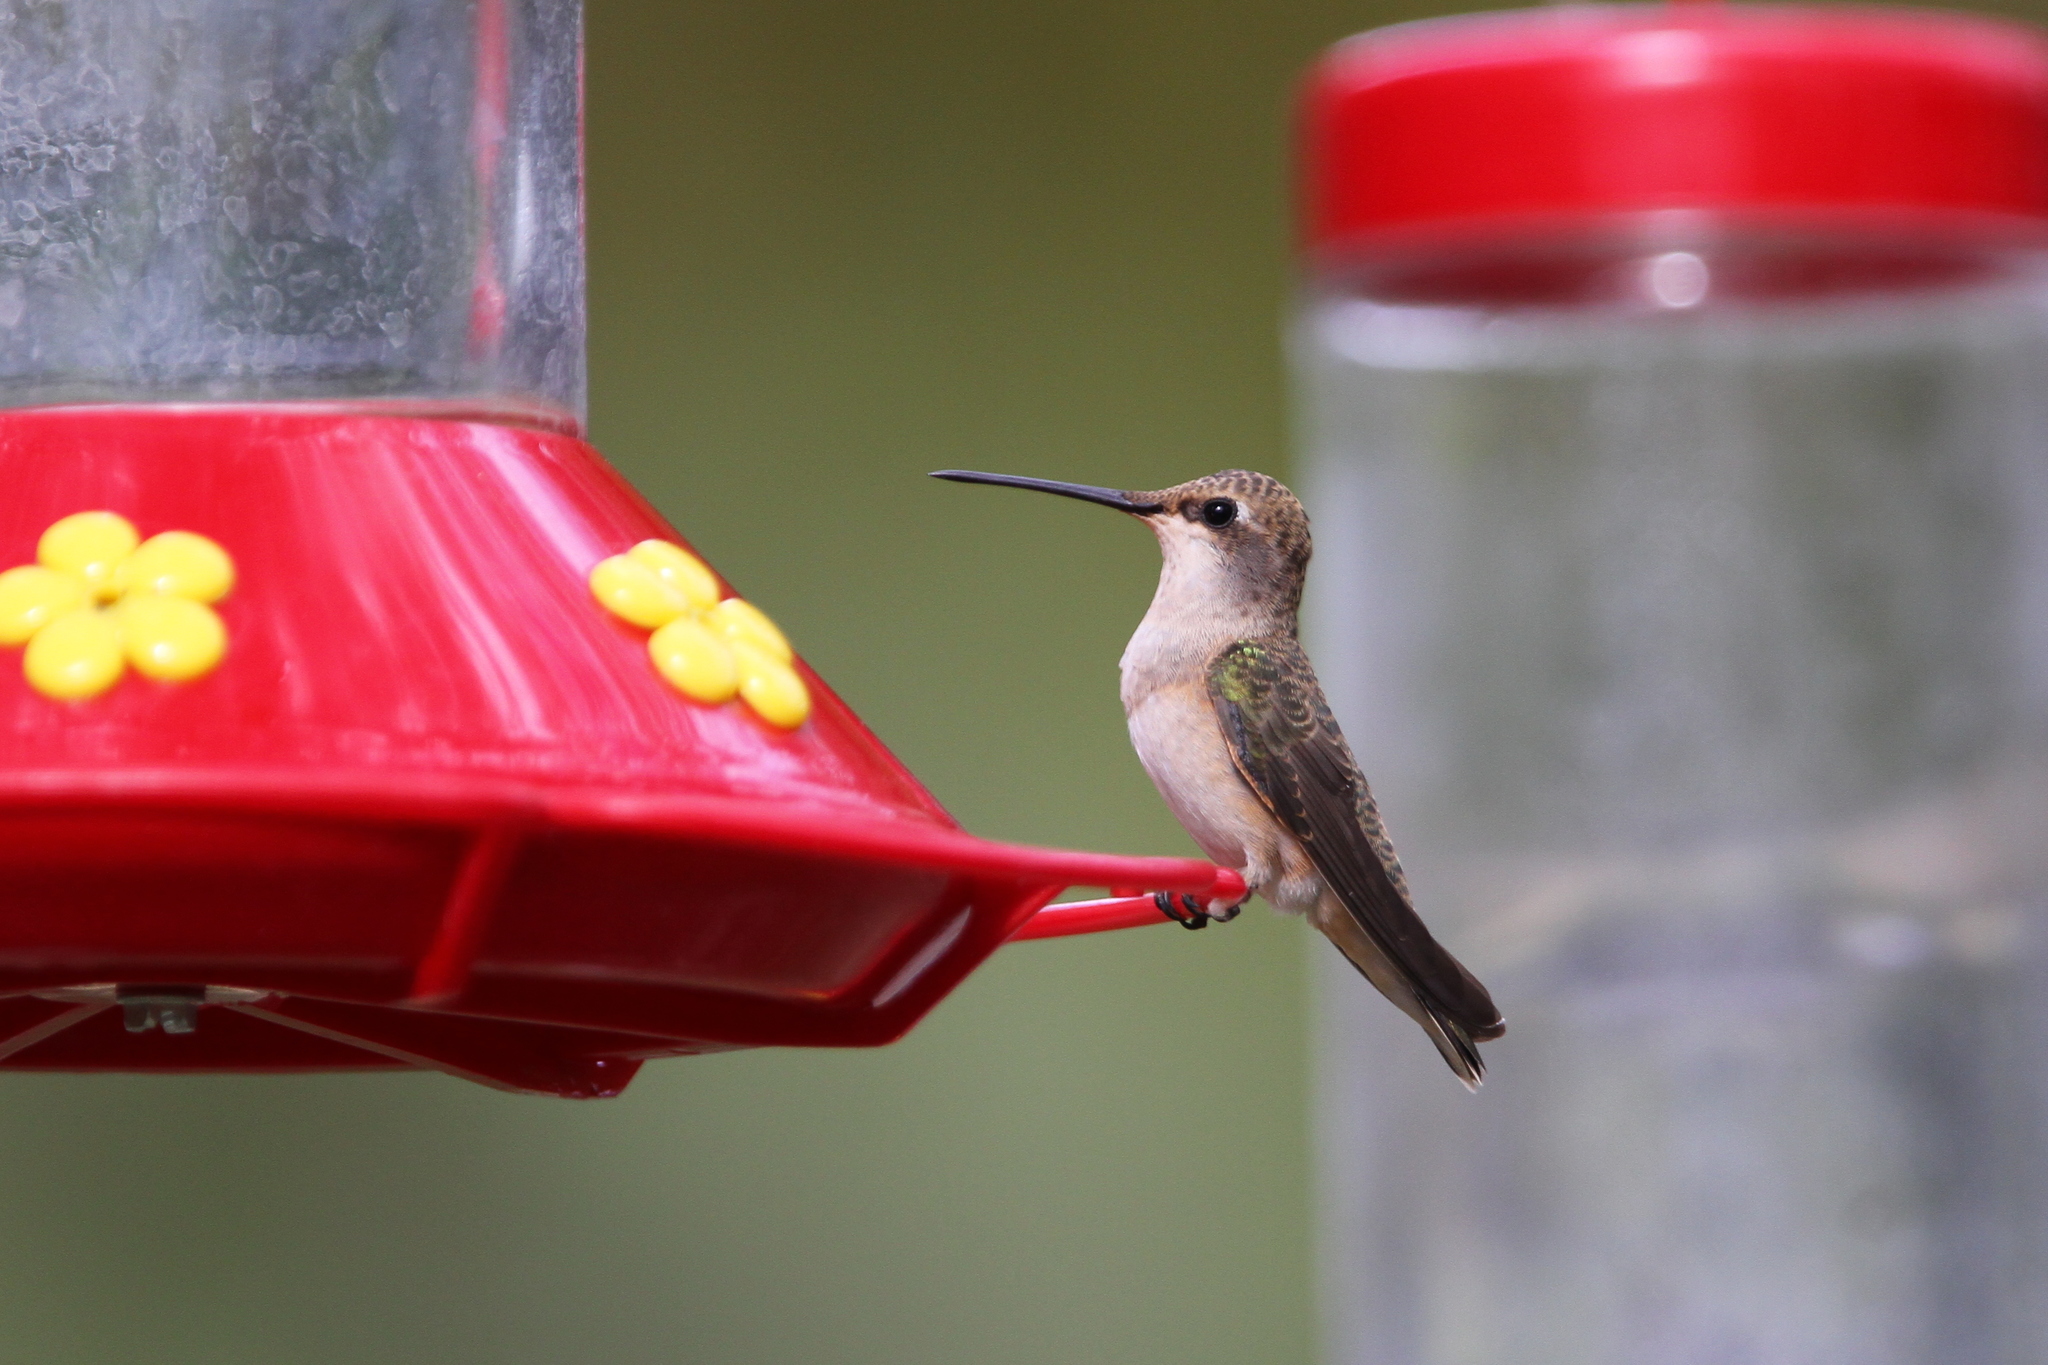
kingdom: Animalia
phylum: Chordata
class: Aves
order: Apodiformes
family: Trochilidae
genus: Archilochus
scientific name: Archilochus alexandri
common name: Black-chinned hummingbird
